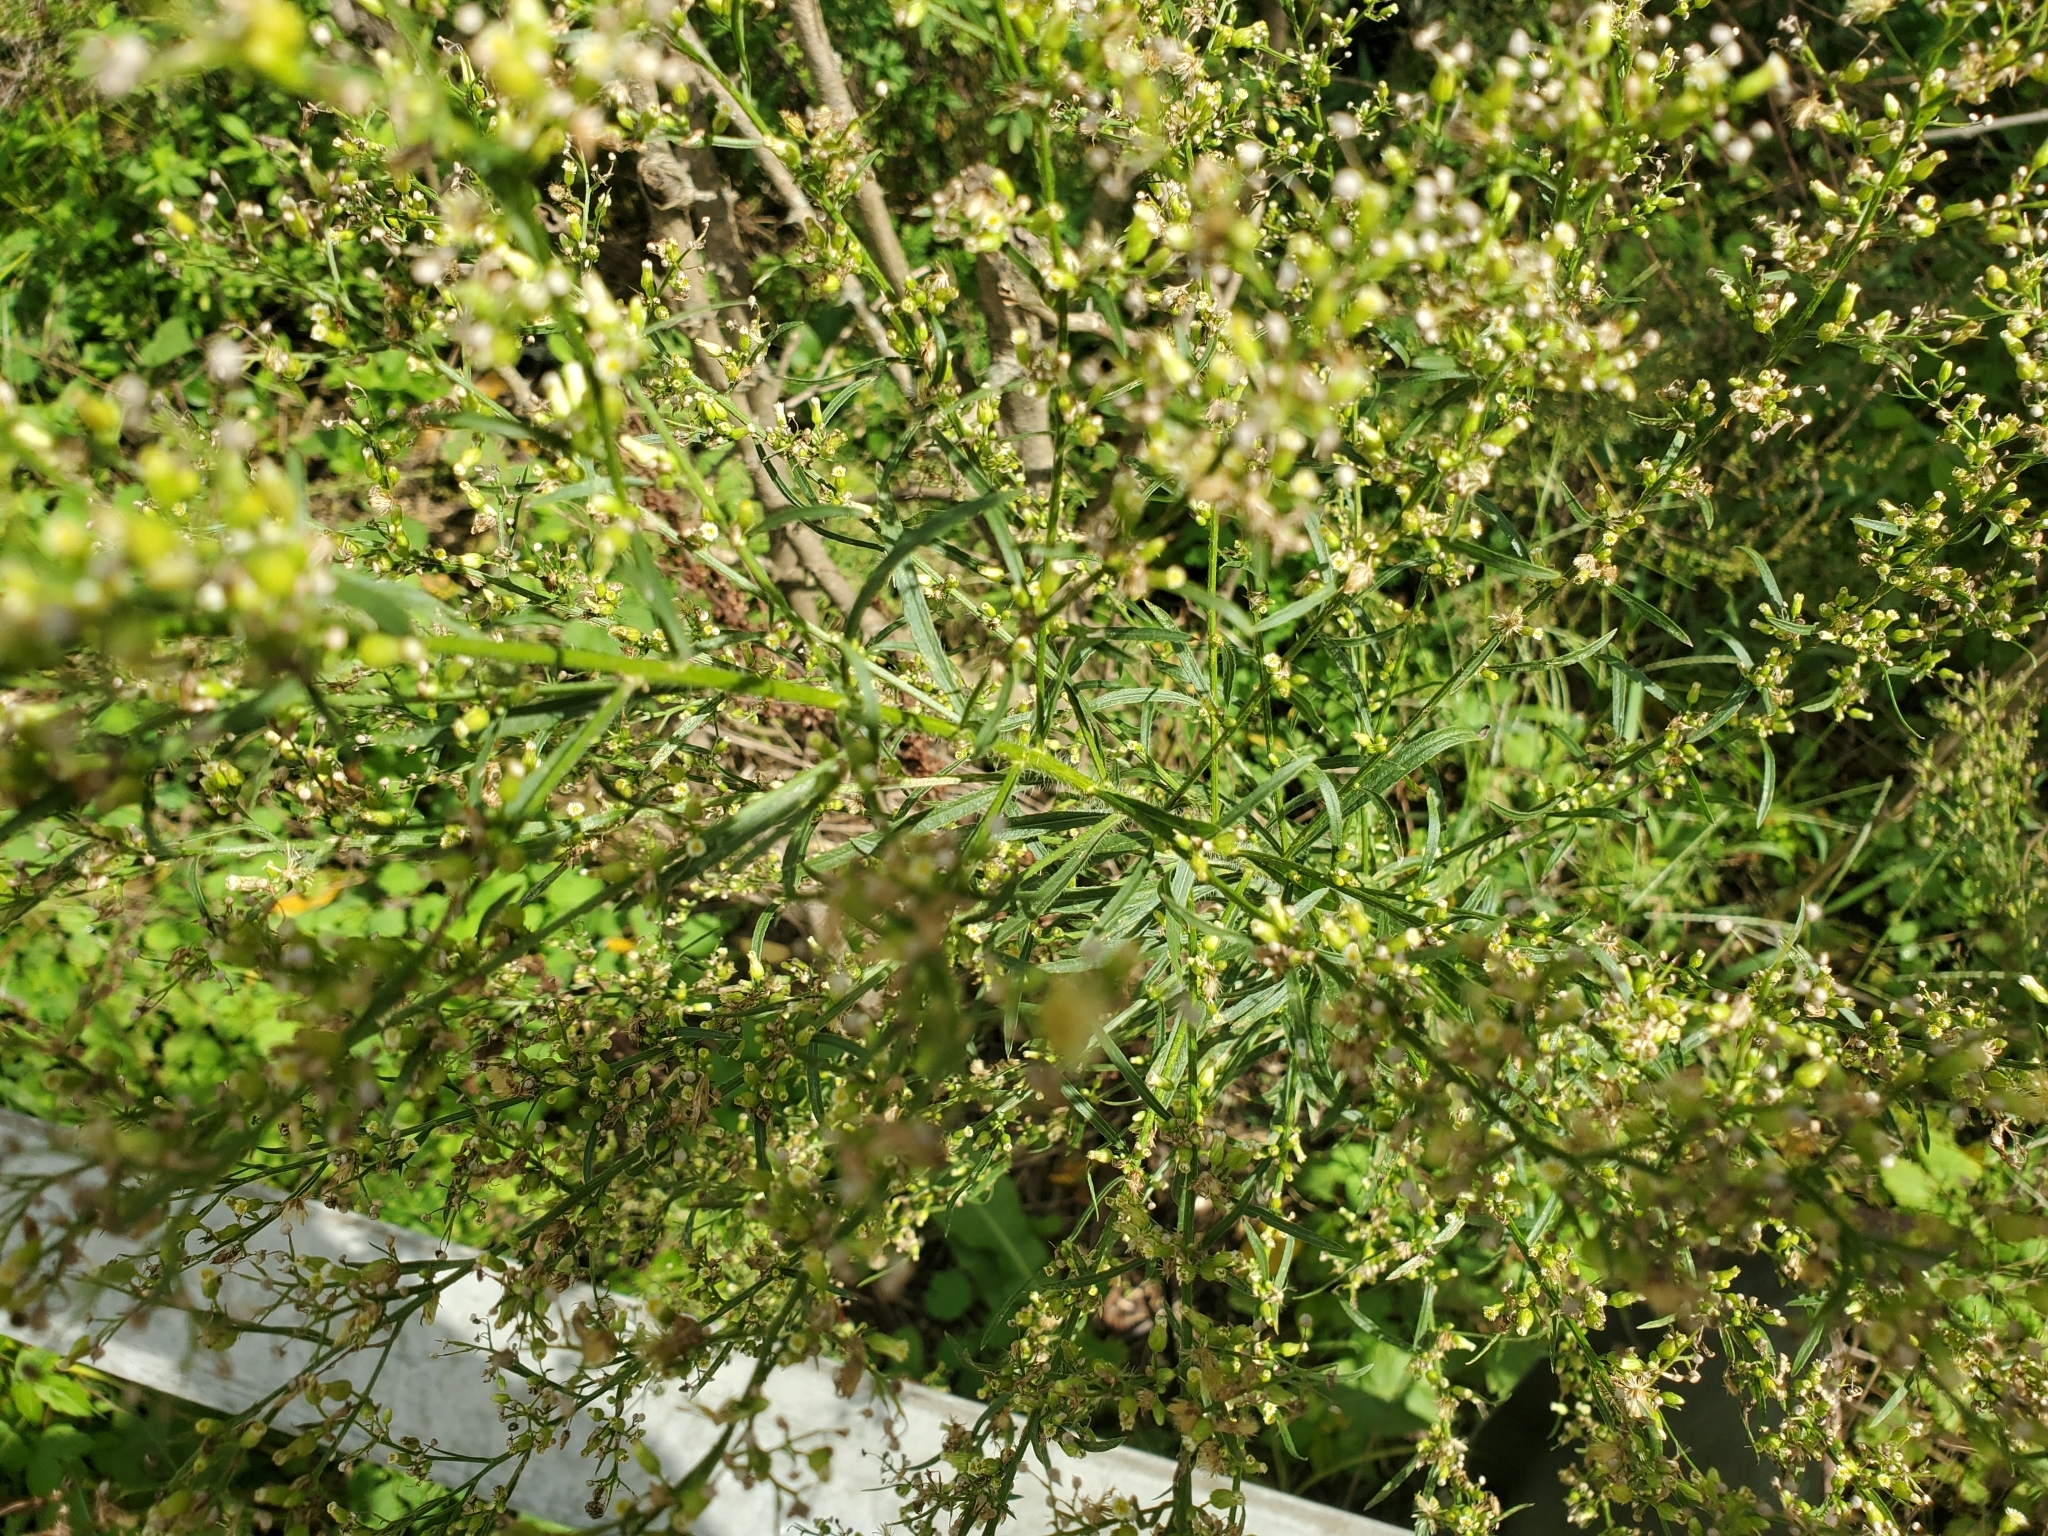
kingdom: Plantae
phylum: Tracheophyta
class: Magnoliopsida
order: Asterales
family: Asteraceae
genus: Erigeron
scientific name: Erigeron canadensis
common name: Canadian fleabane
